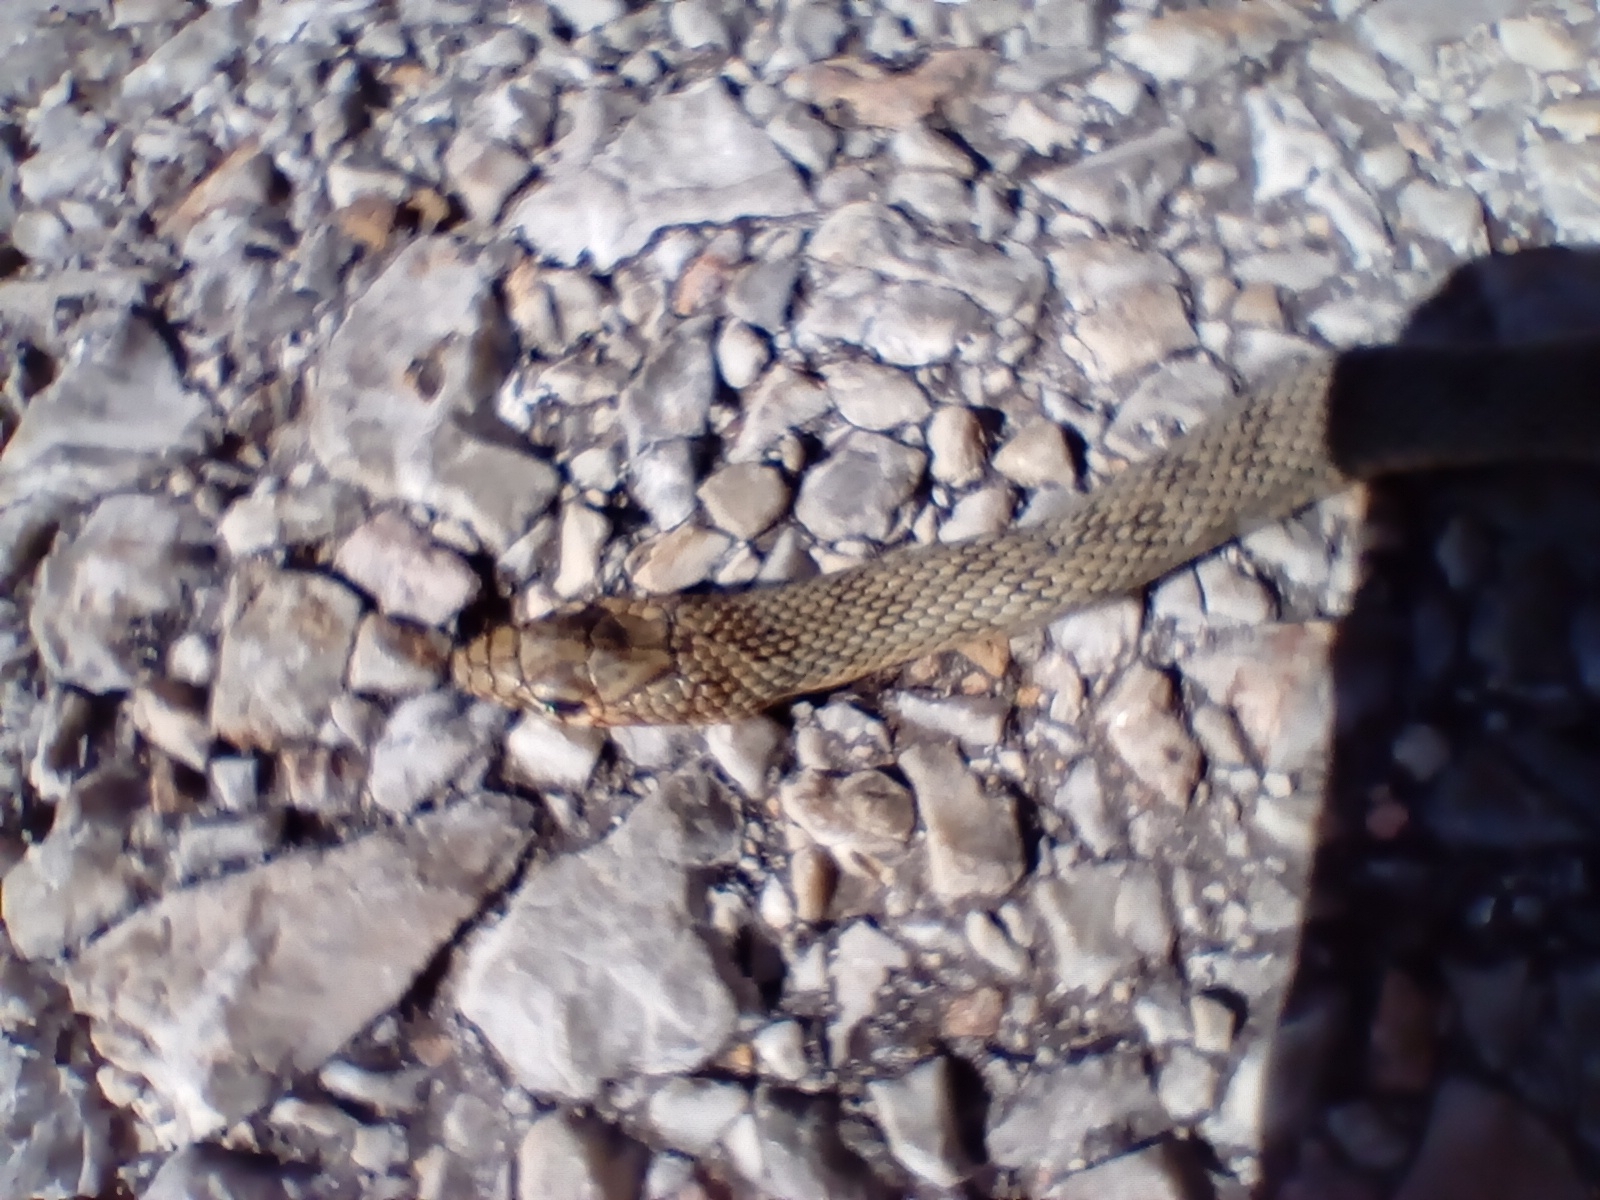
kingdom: Animalia
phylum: Chordata
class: Squamata
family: Colubridae
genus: Dolichophis
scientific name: Dolichophis caspius
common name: Large whip snake
